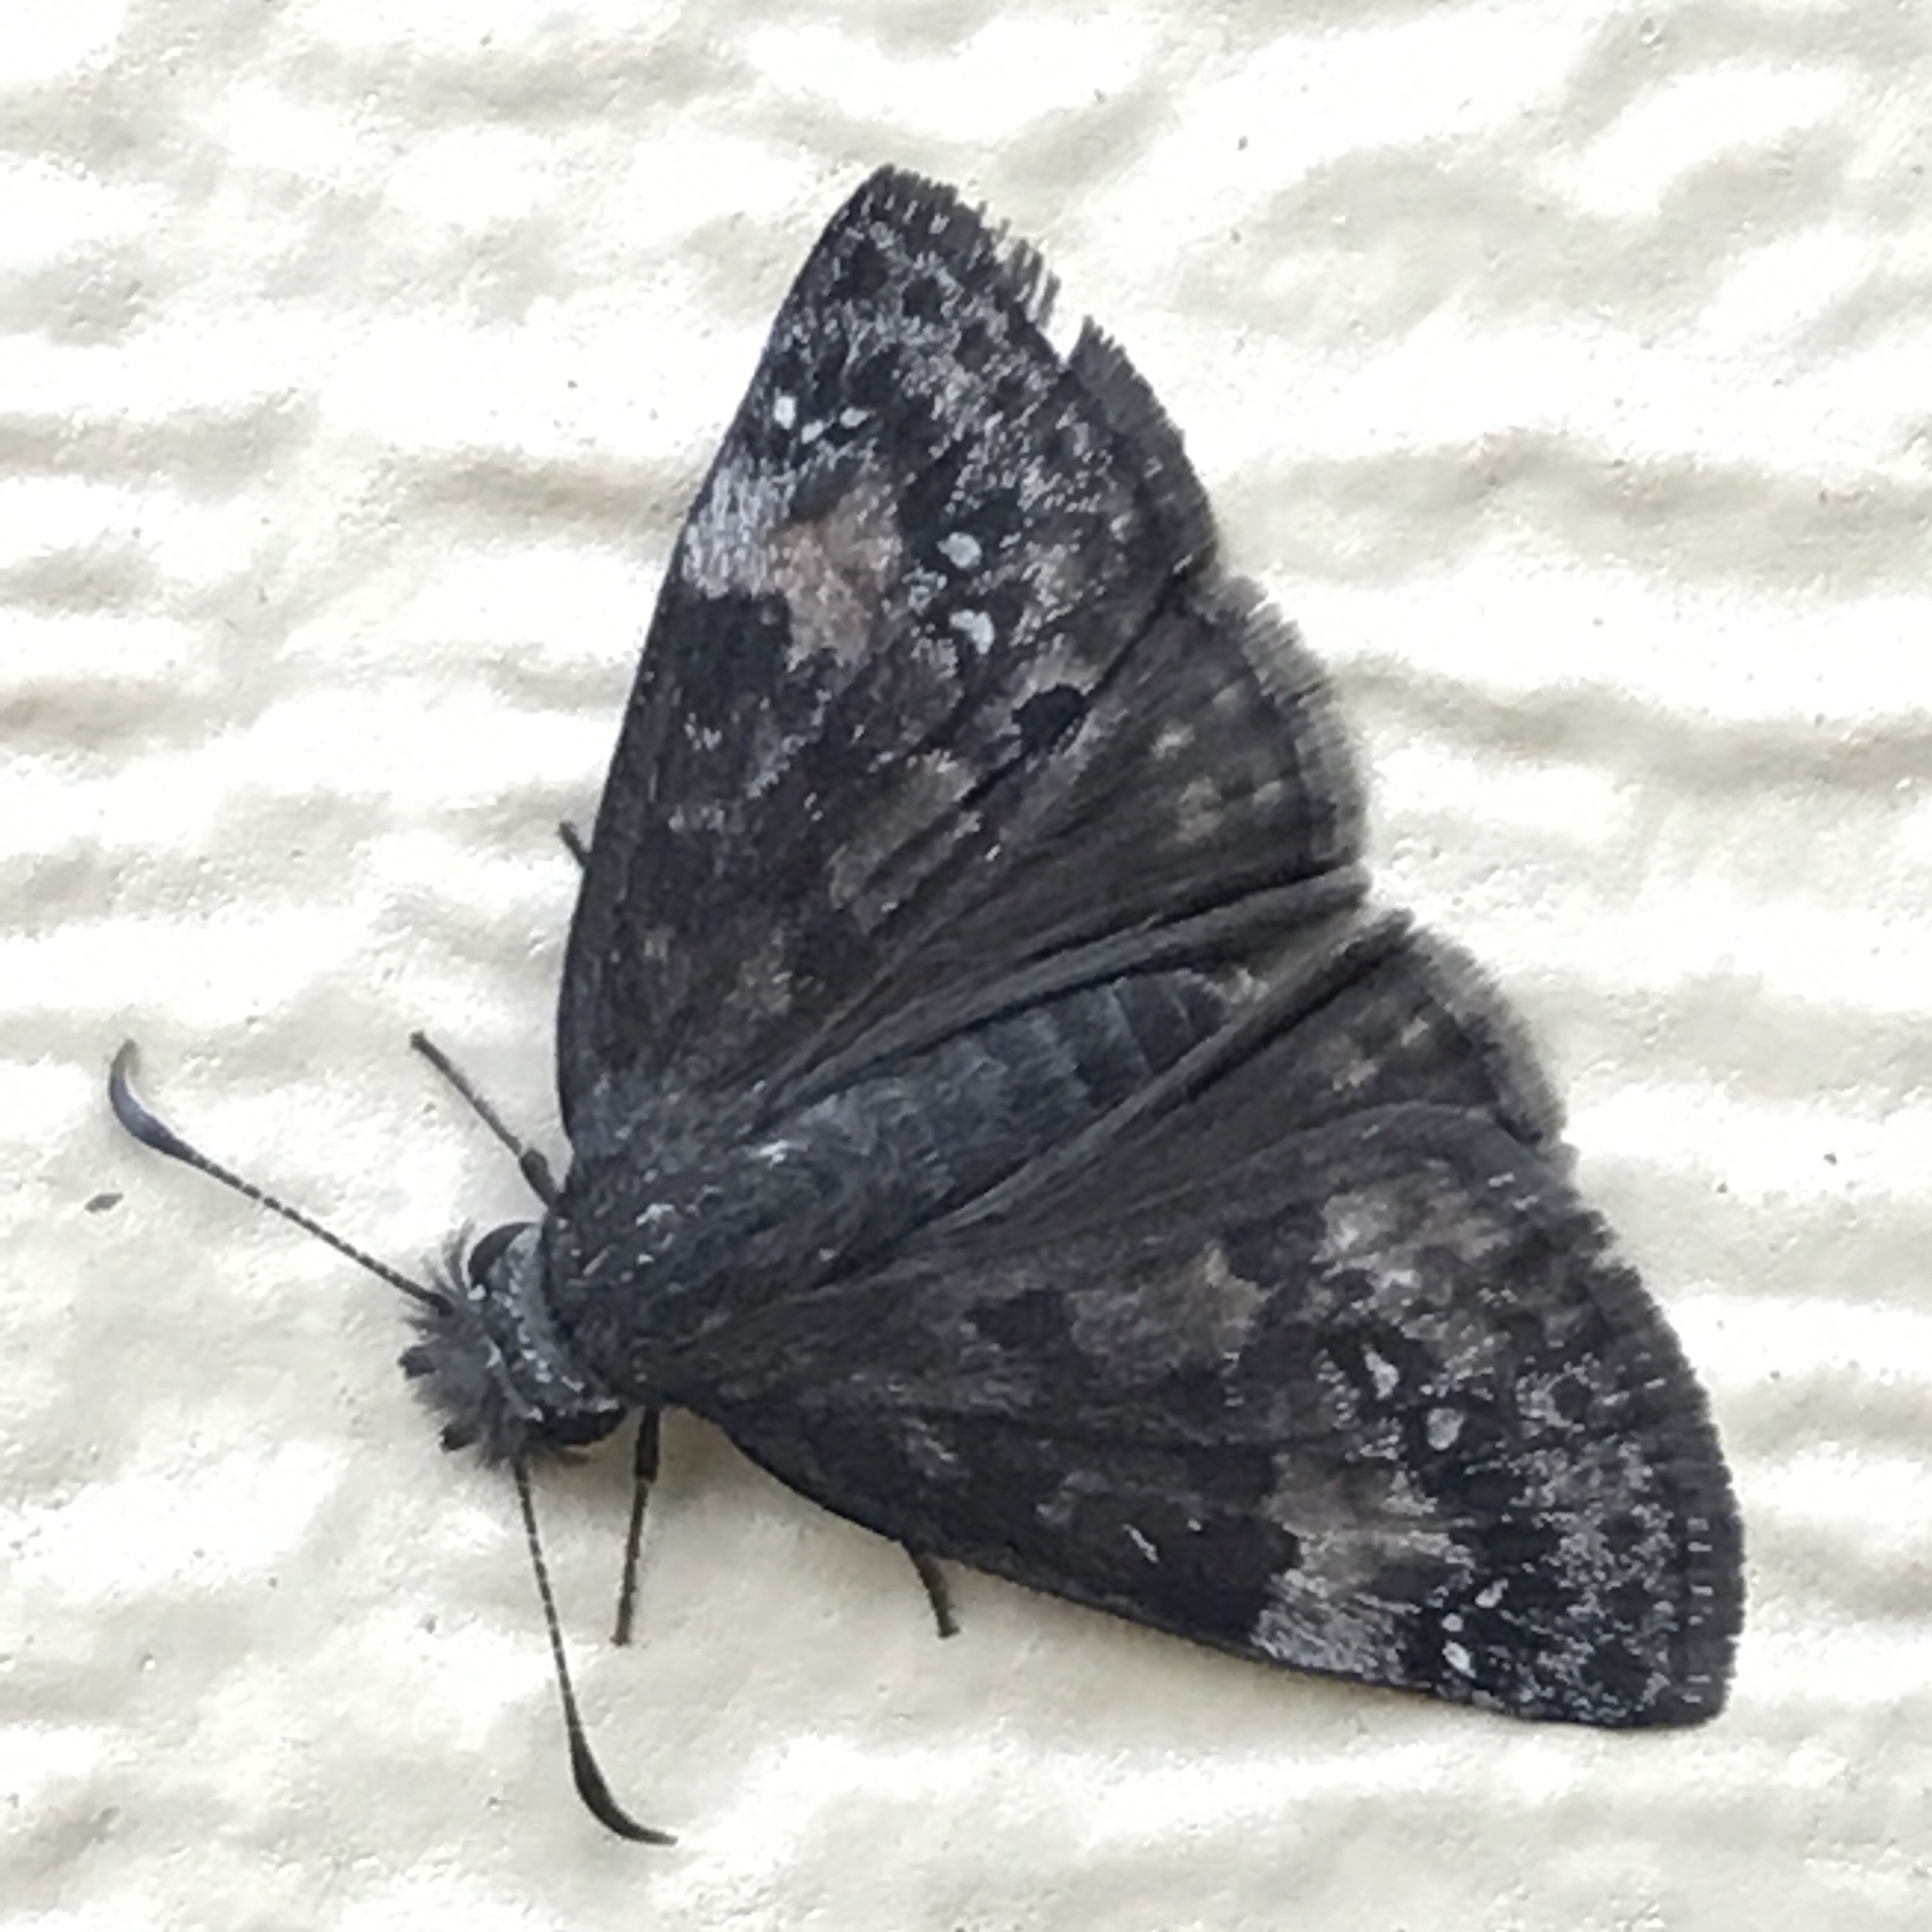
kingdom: Animalia
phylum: Arthropoda
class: Insecta
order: Lepidoptera
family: Hesperiidae
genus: Erynnis
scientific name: Erynnis baptisiae
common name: Wild indigo duskywing
